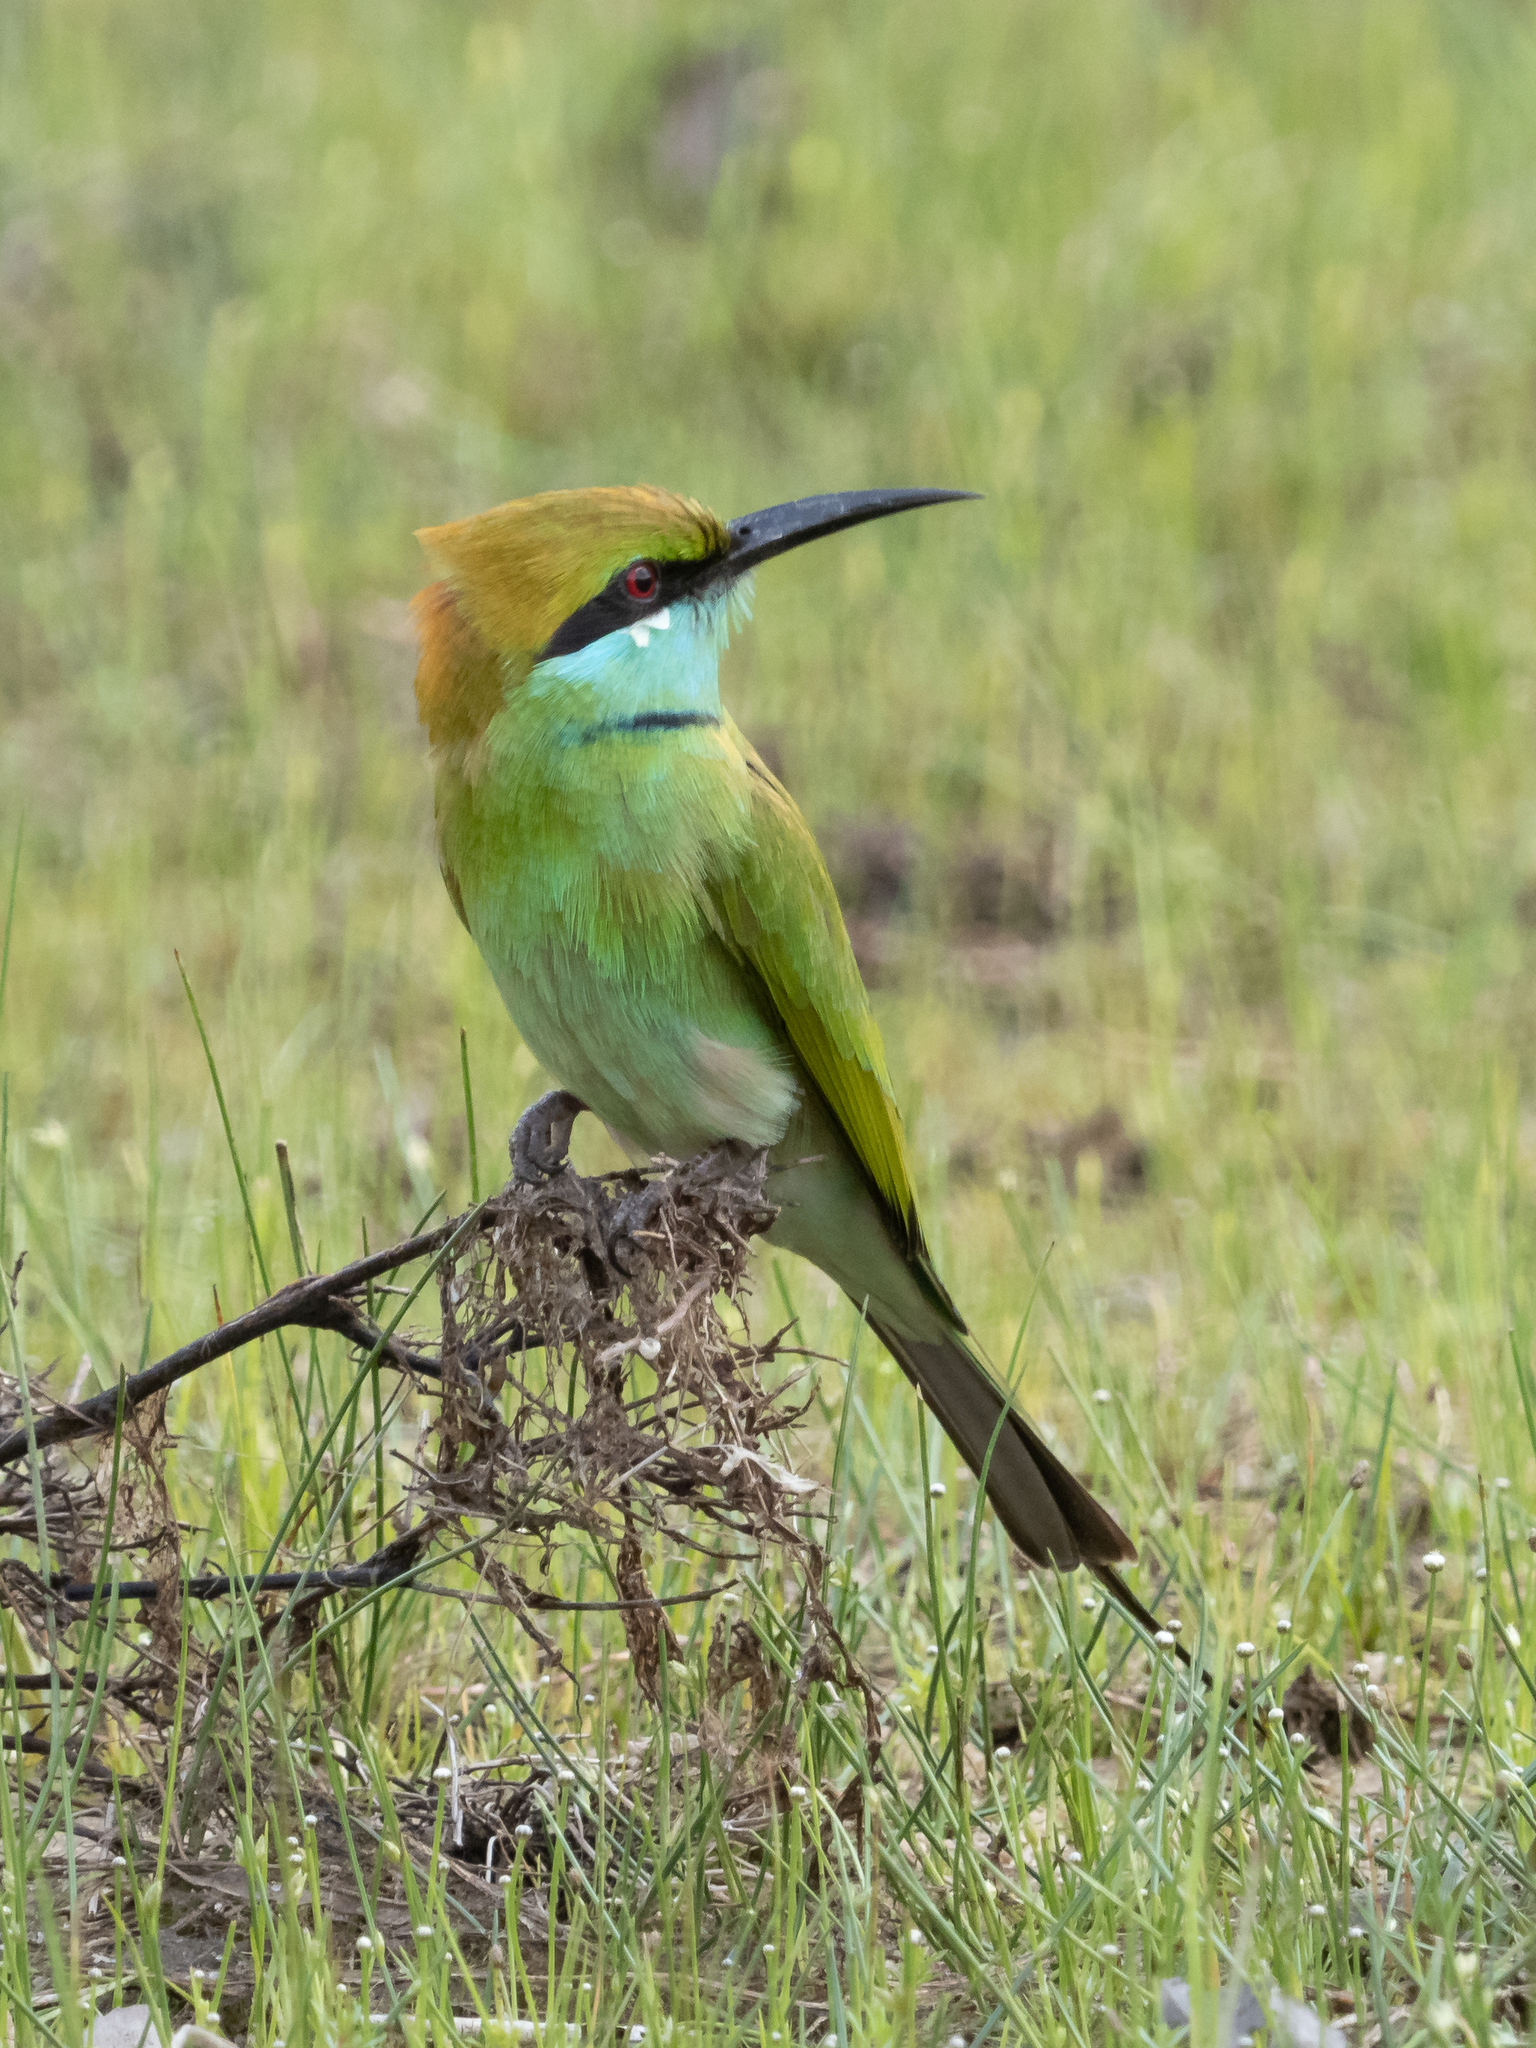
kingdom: Animalia
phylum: Chordata
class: Aves
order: Coraciiformes
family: Meropidae
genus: Merops
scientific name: Merops orientalis
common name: Green bee-eater
